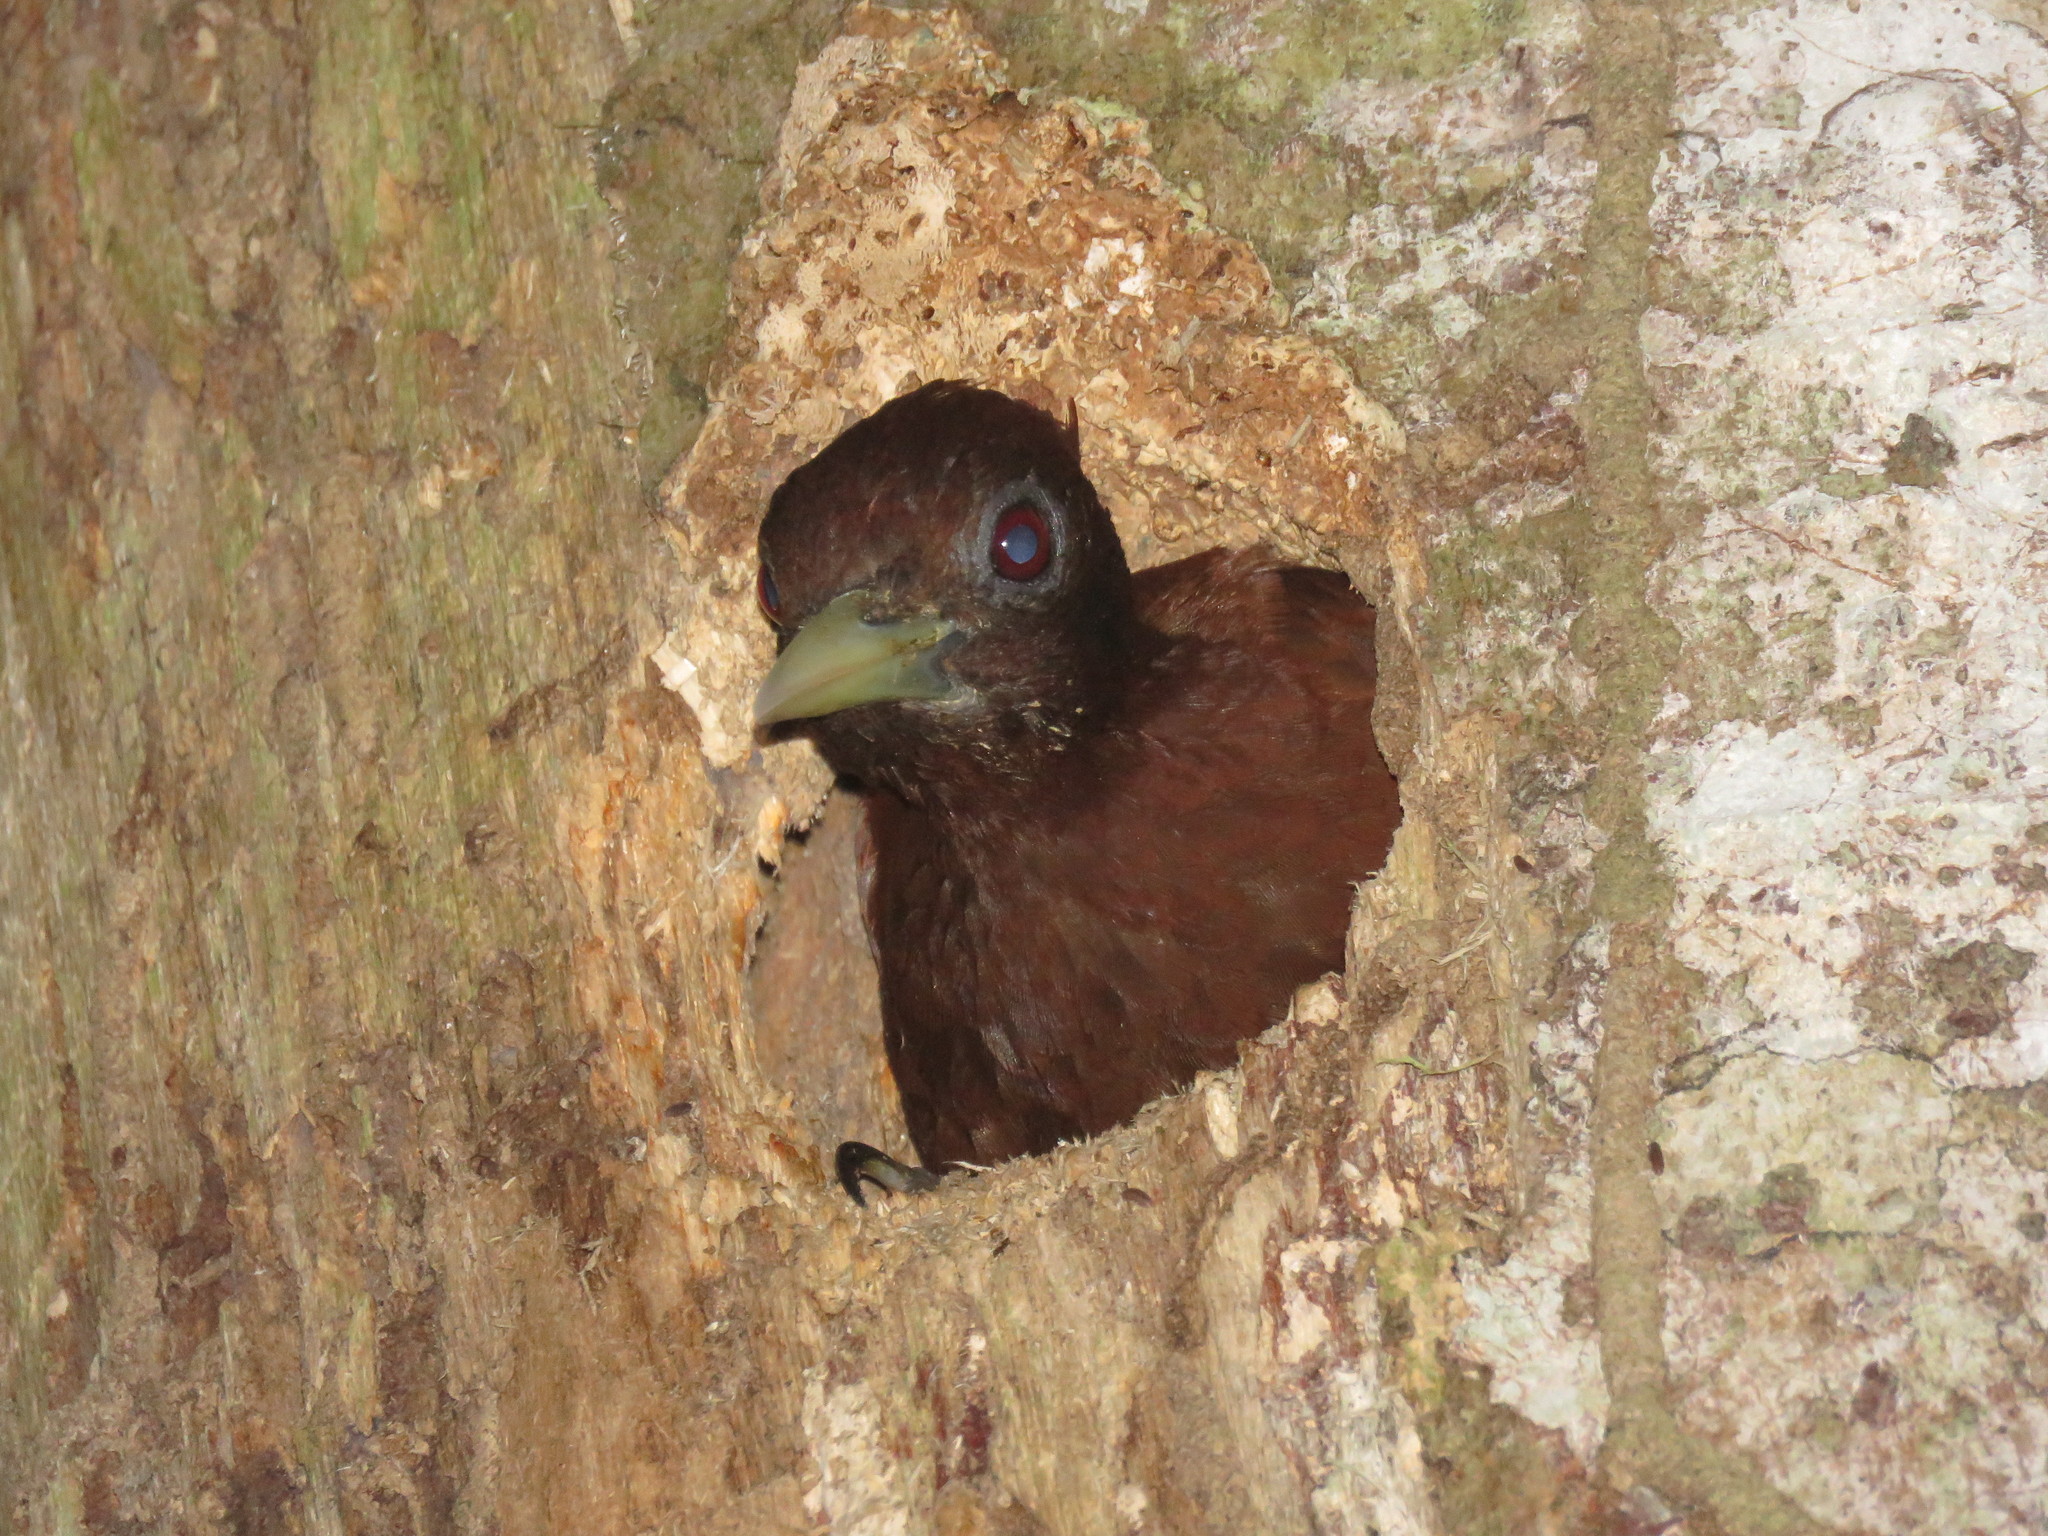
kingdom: Animalia
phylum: Chordata
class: Aves
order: Piciformes
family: Picidae
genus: Celeus
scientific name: Celeus elegans
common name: Chestnut woodpecker
